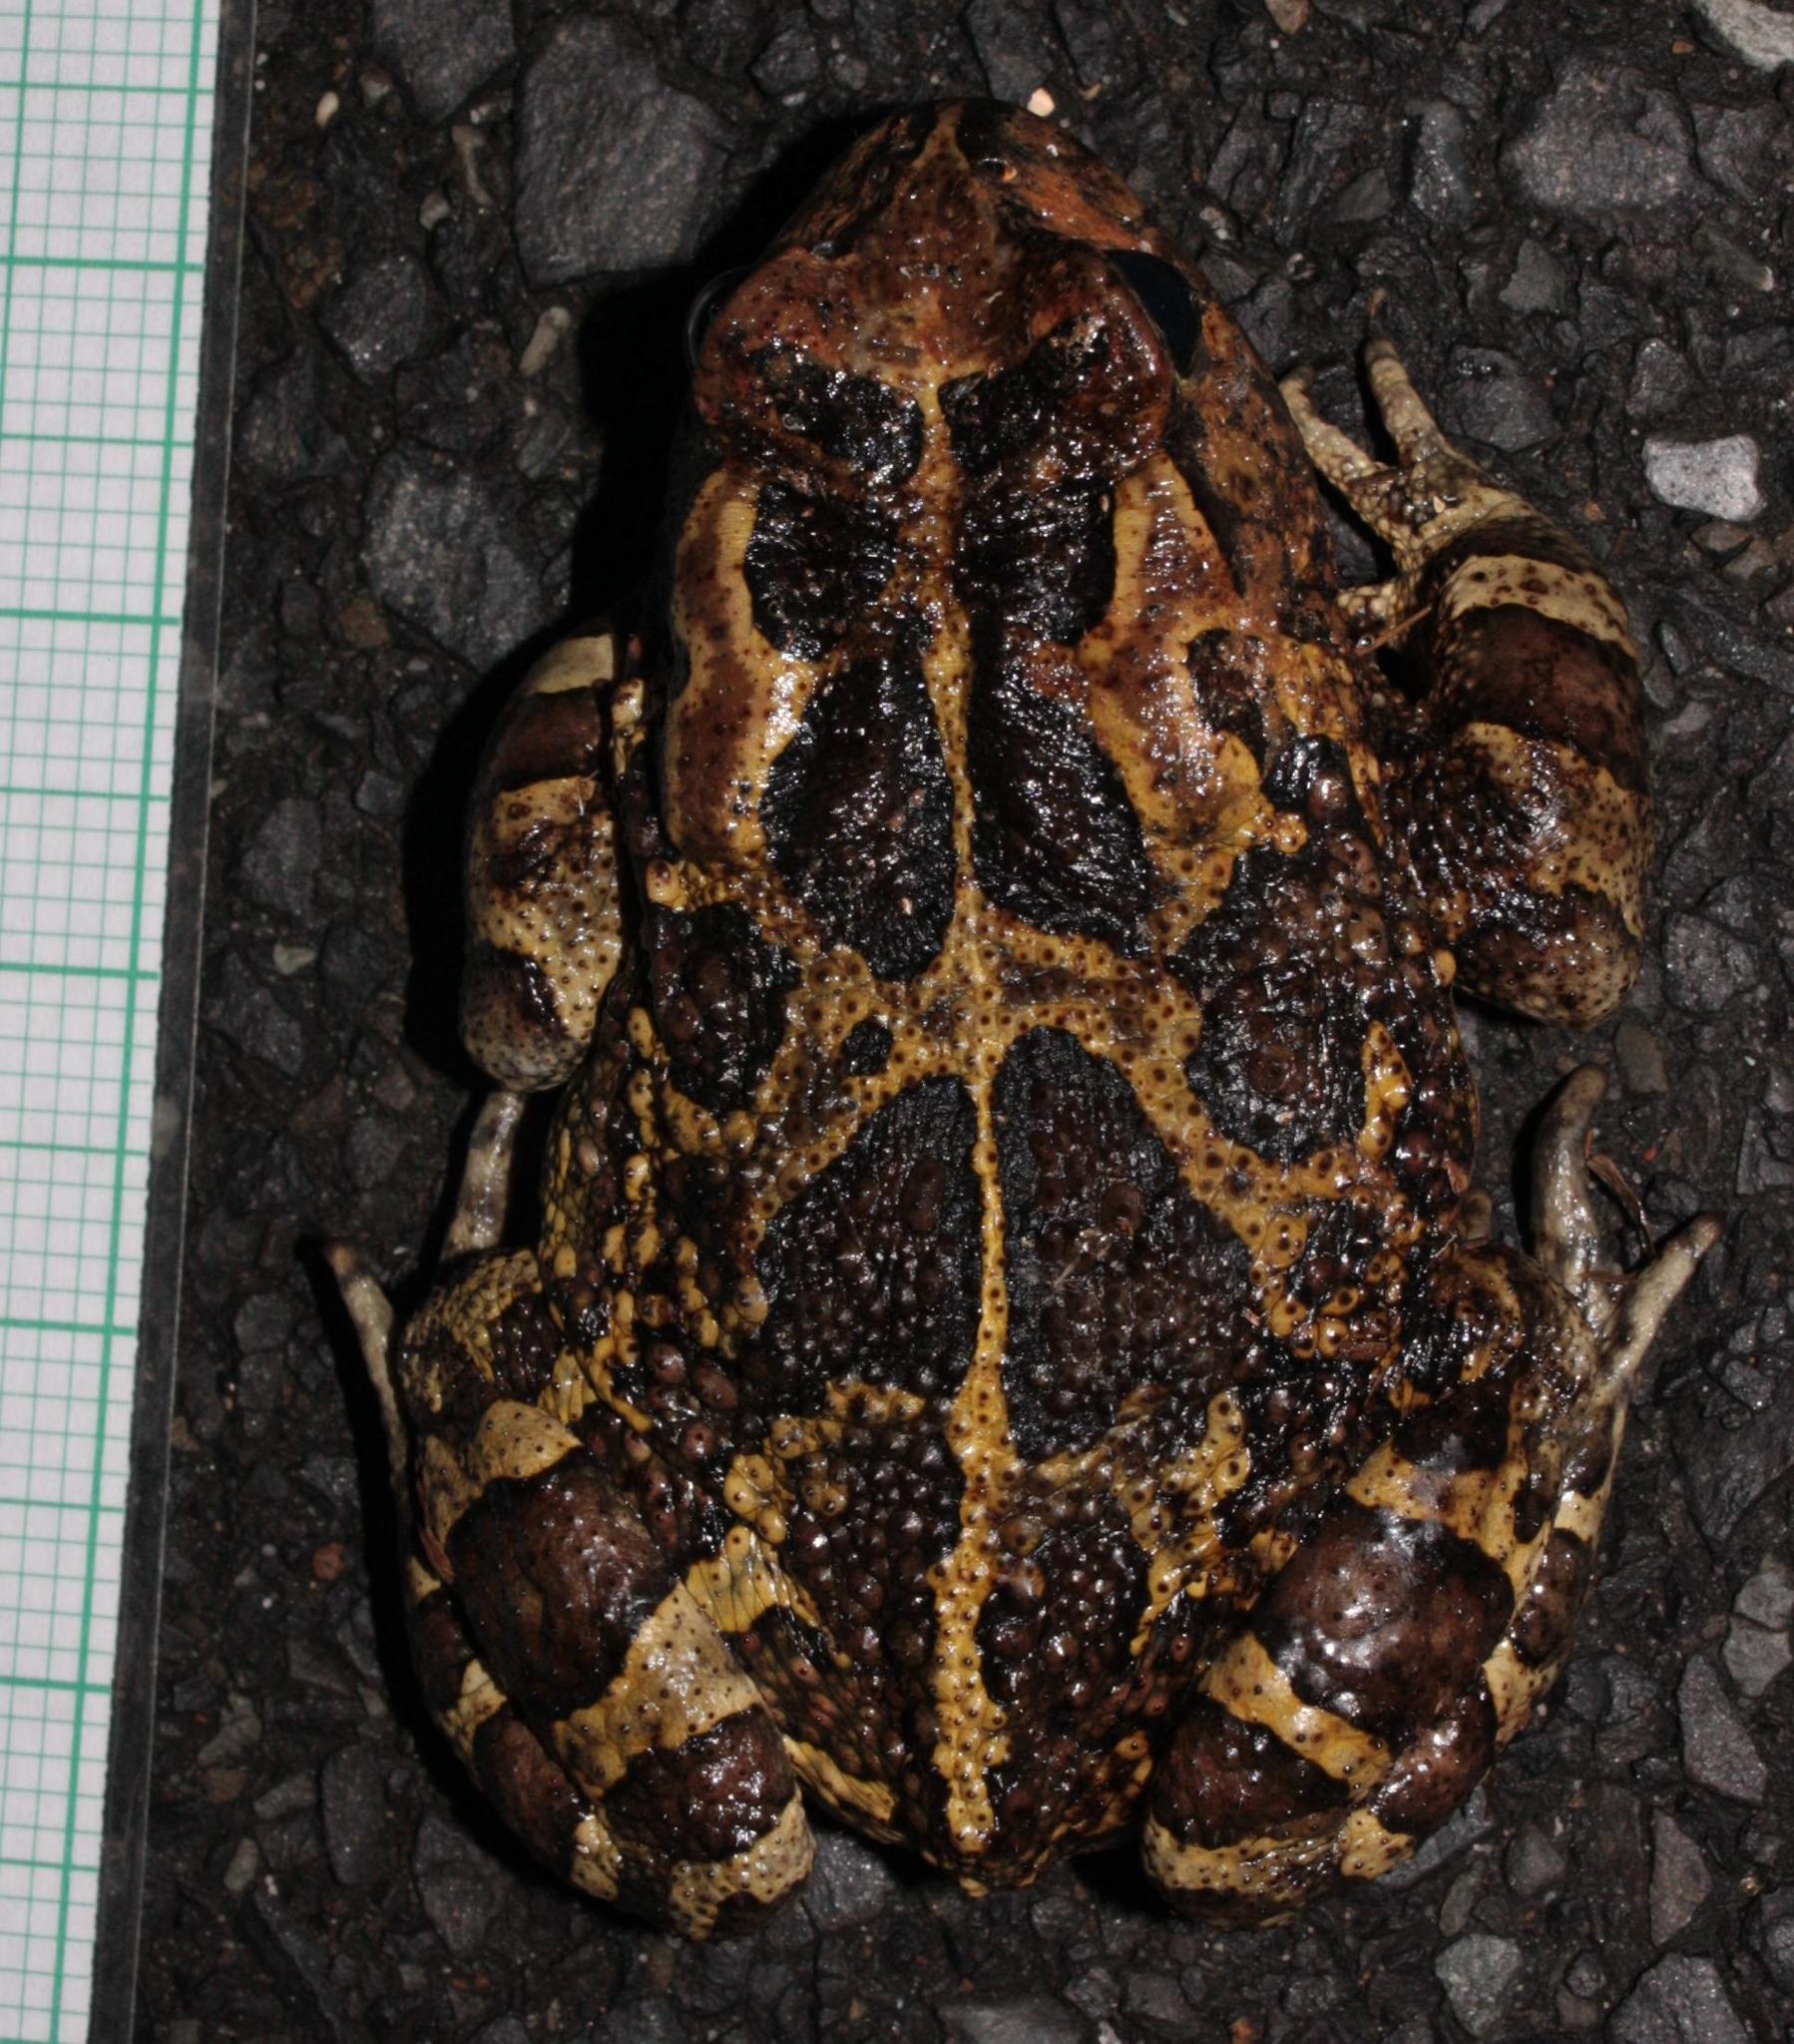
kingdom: Animalia
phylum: Chordata
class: Amphibia
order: Anura
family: Bufonidae
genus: Sclerophrys
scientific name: Sclerophrys pantherina
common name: Panther toad
